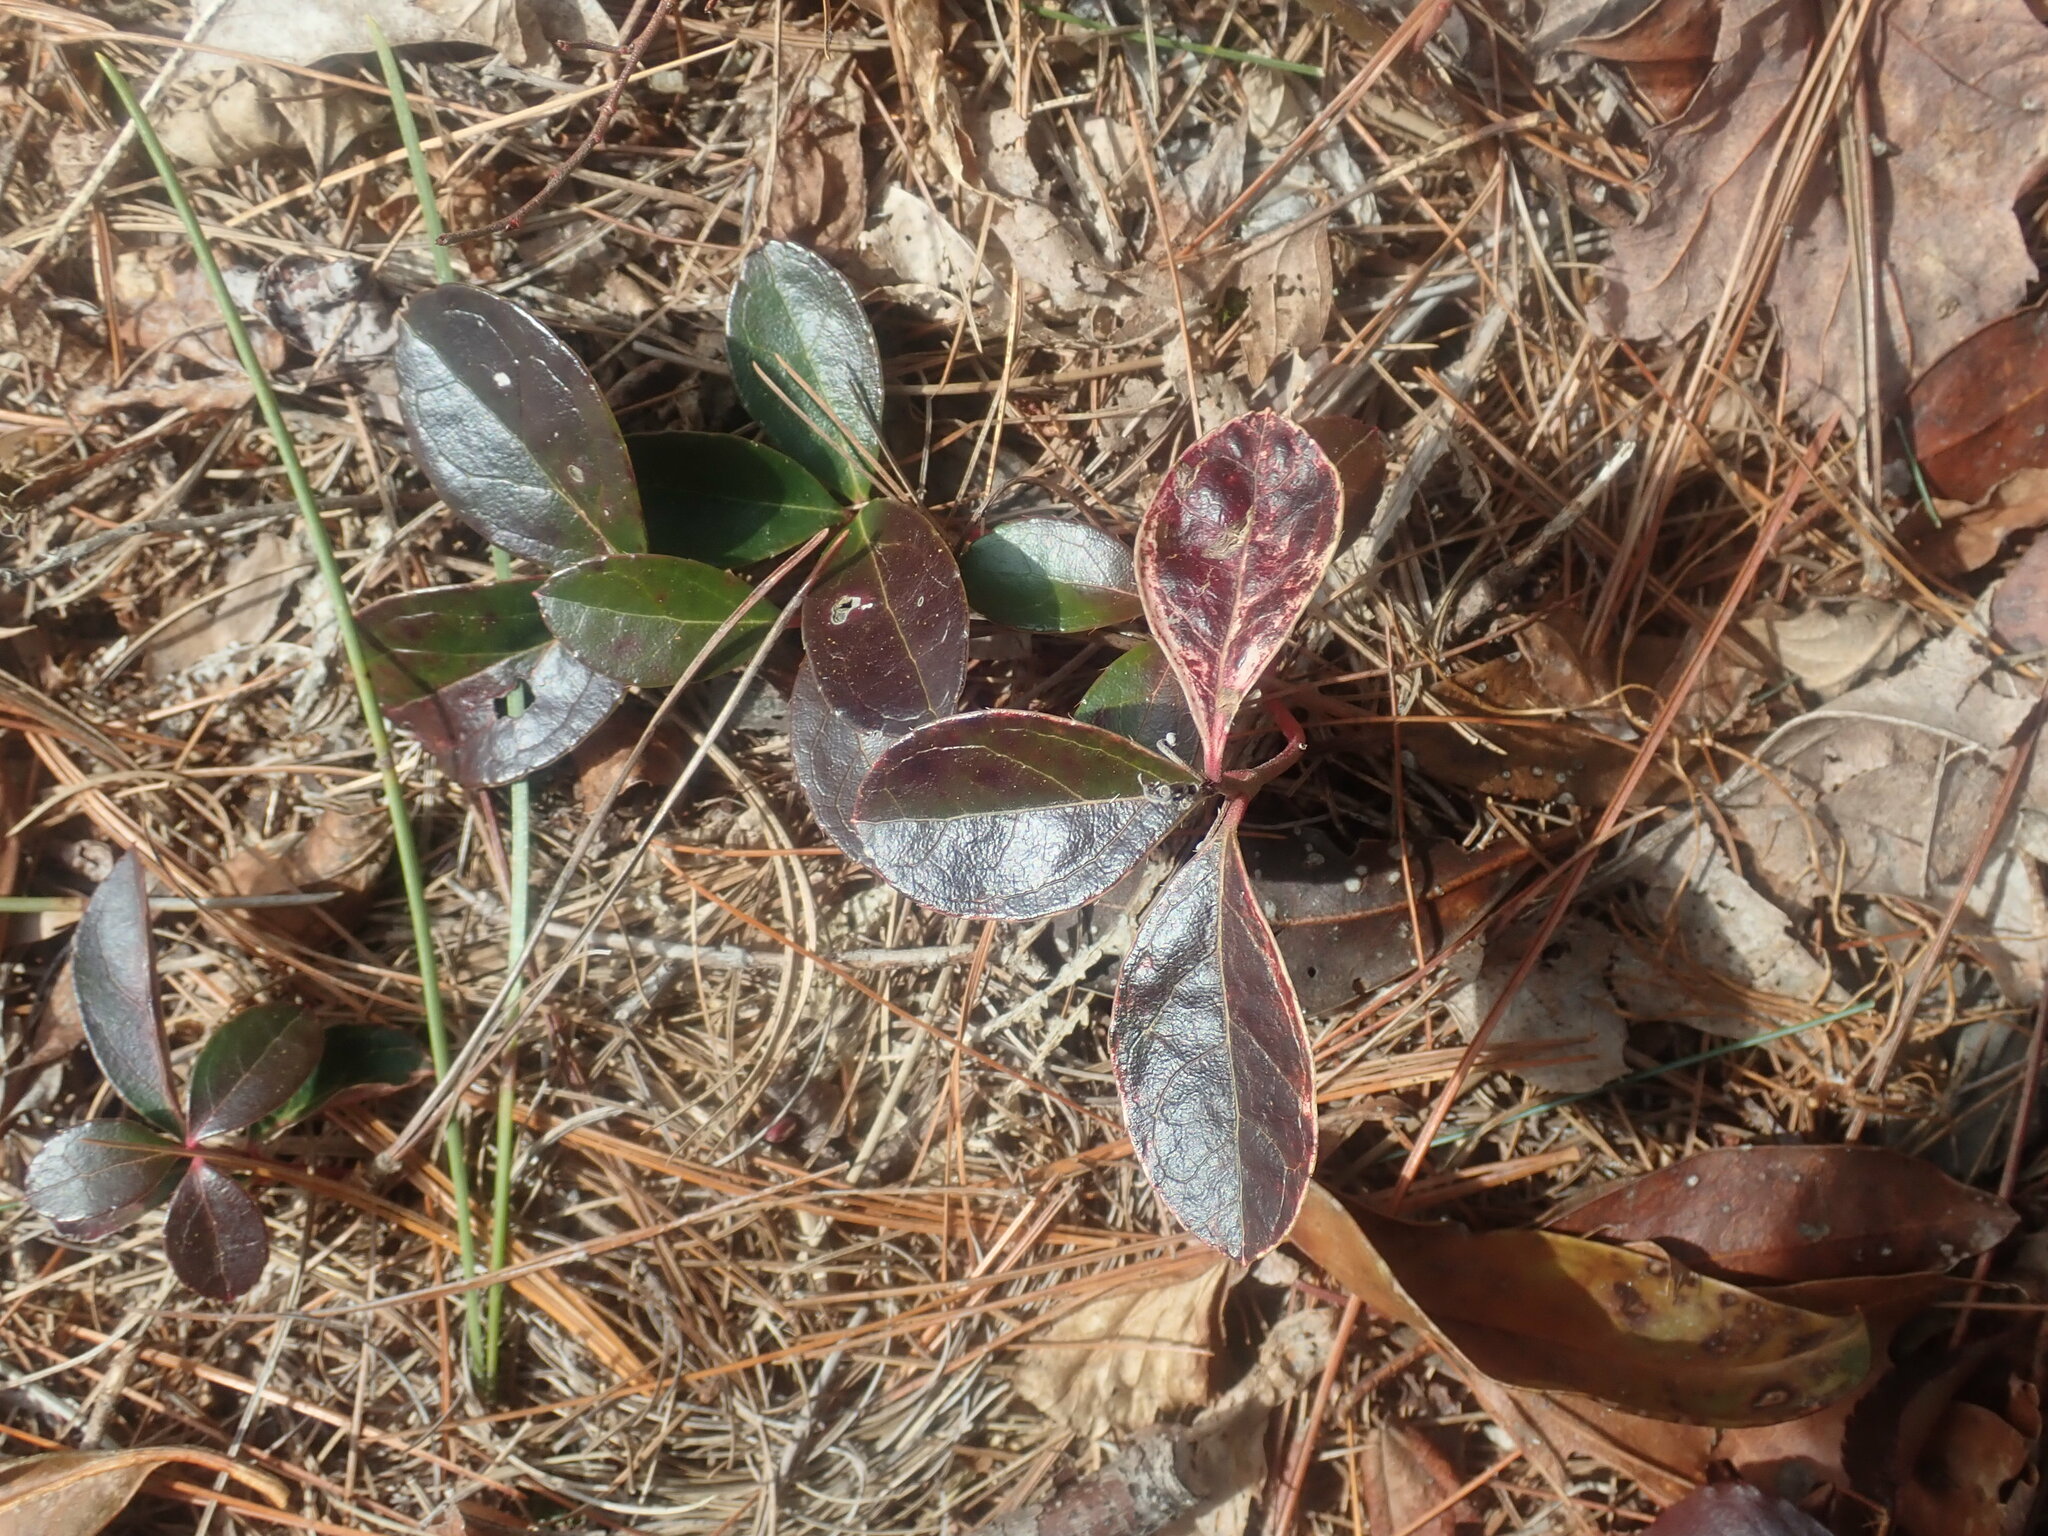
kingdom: Plantae
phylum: Tracheophyta
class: Magnoliopsida
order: Ericales
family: Ericaceae
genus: Gaultheria
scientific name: Gaultheria procumbens
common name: Checkerberry
